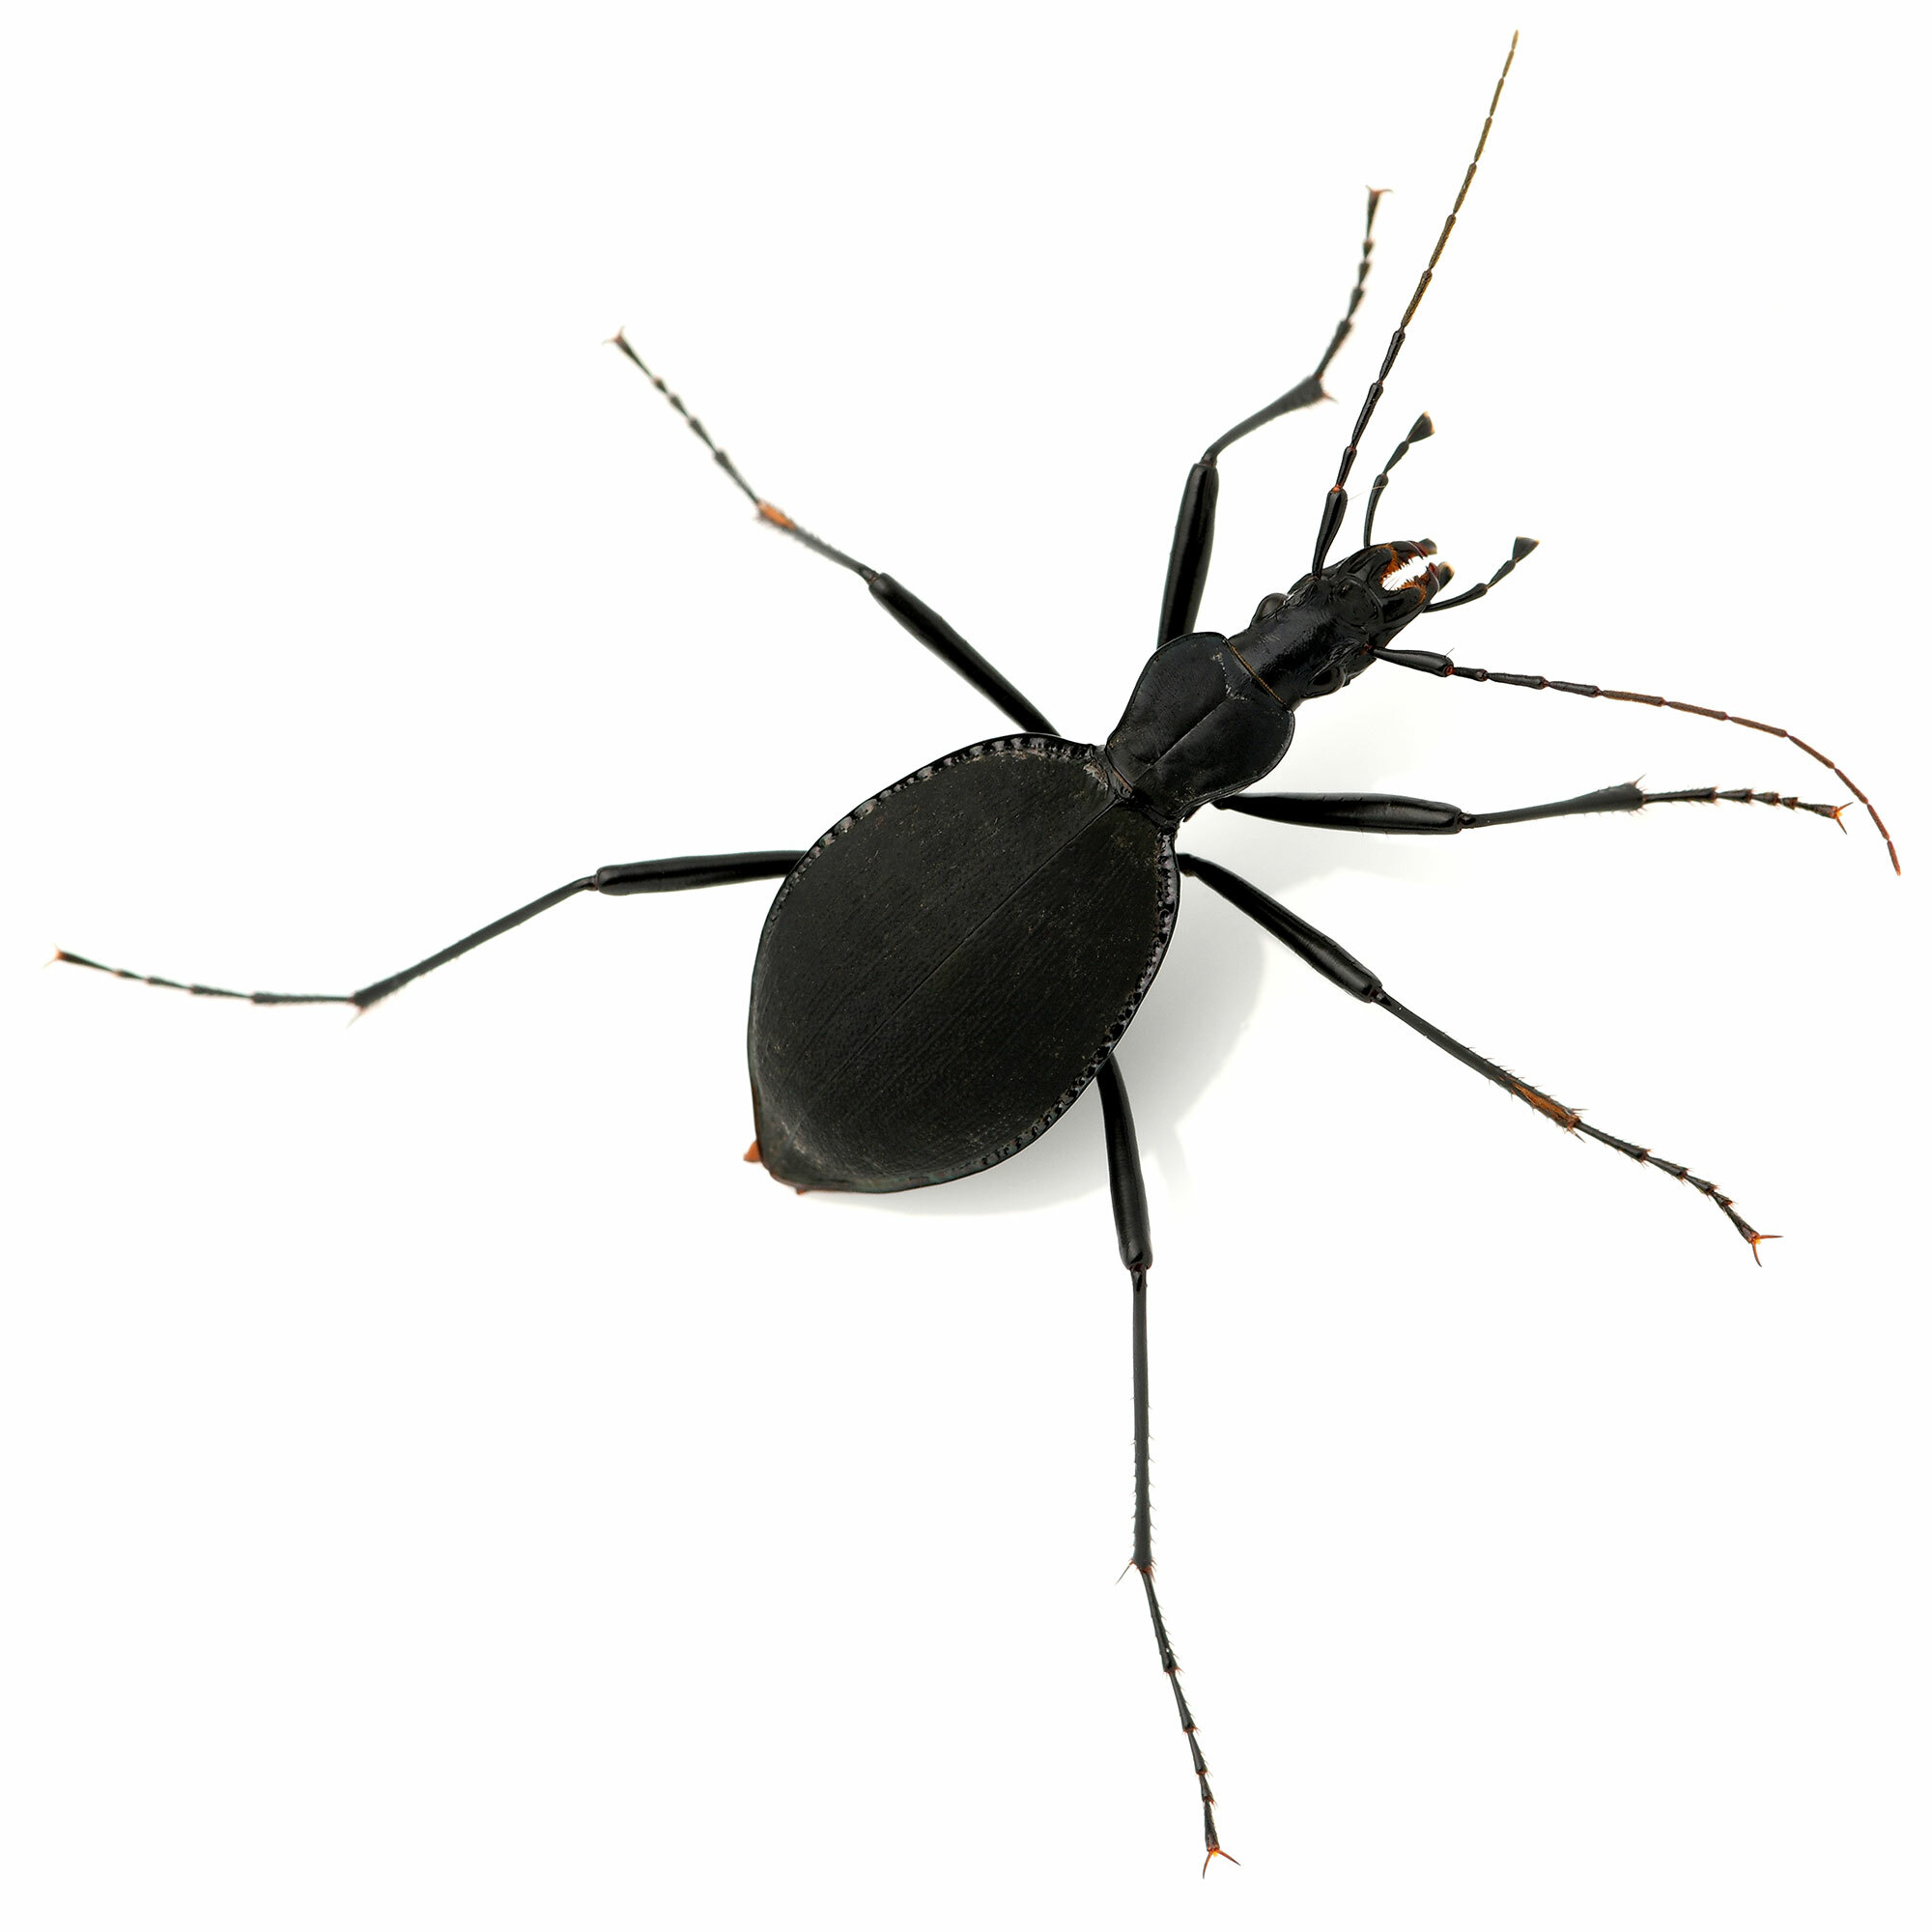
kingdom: Animalia
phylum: Arthropoda
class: Insecta
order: Coleoptera
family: Carabidae
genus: Scaphinotus
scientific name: Scaphinotus angusticollis
